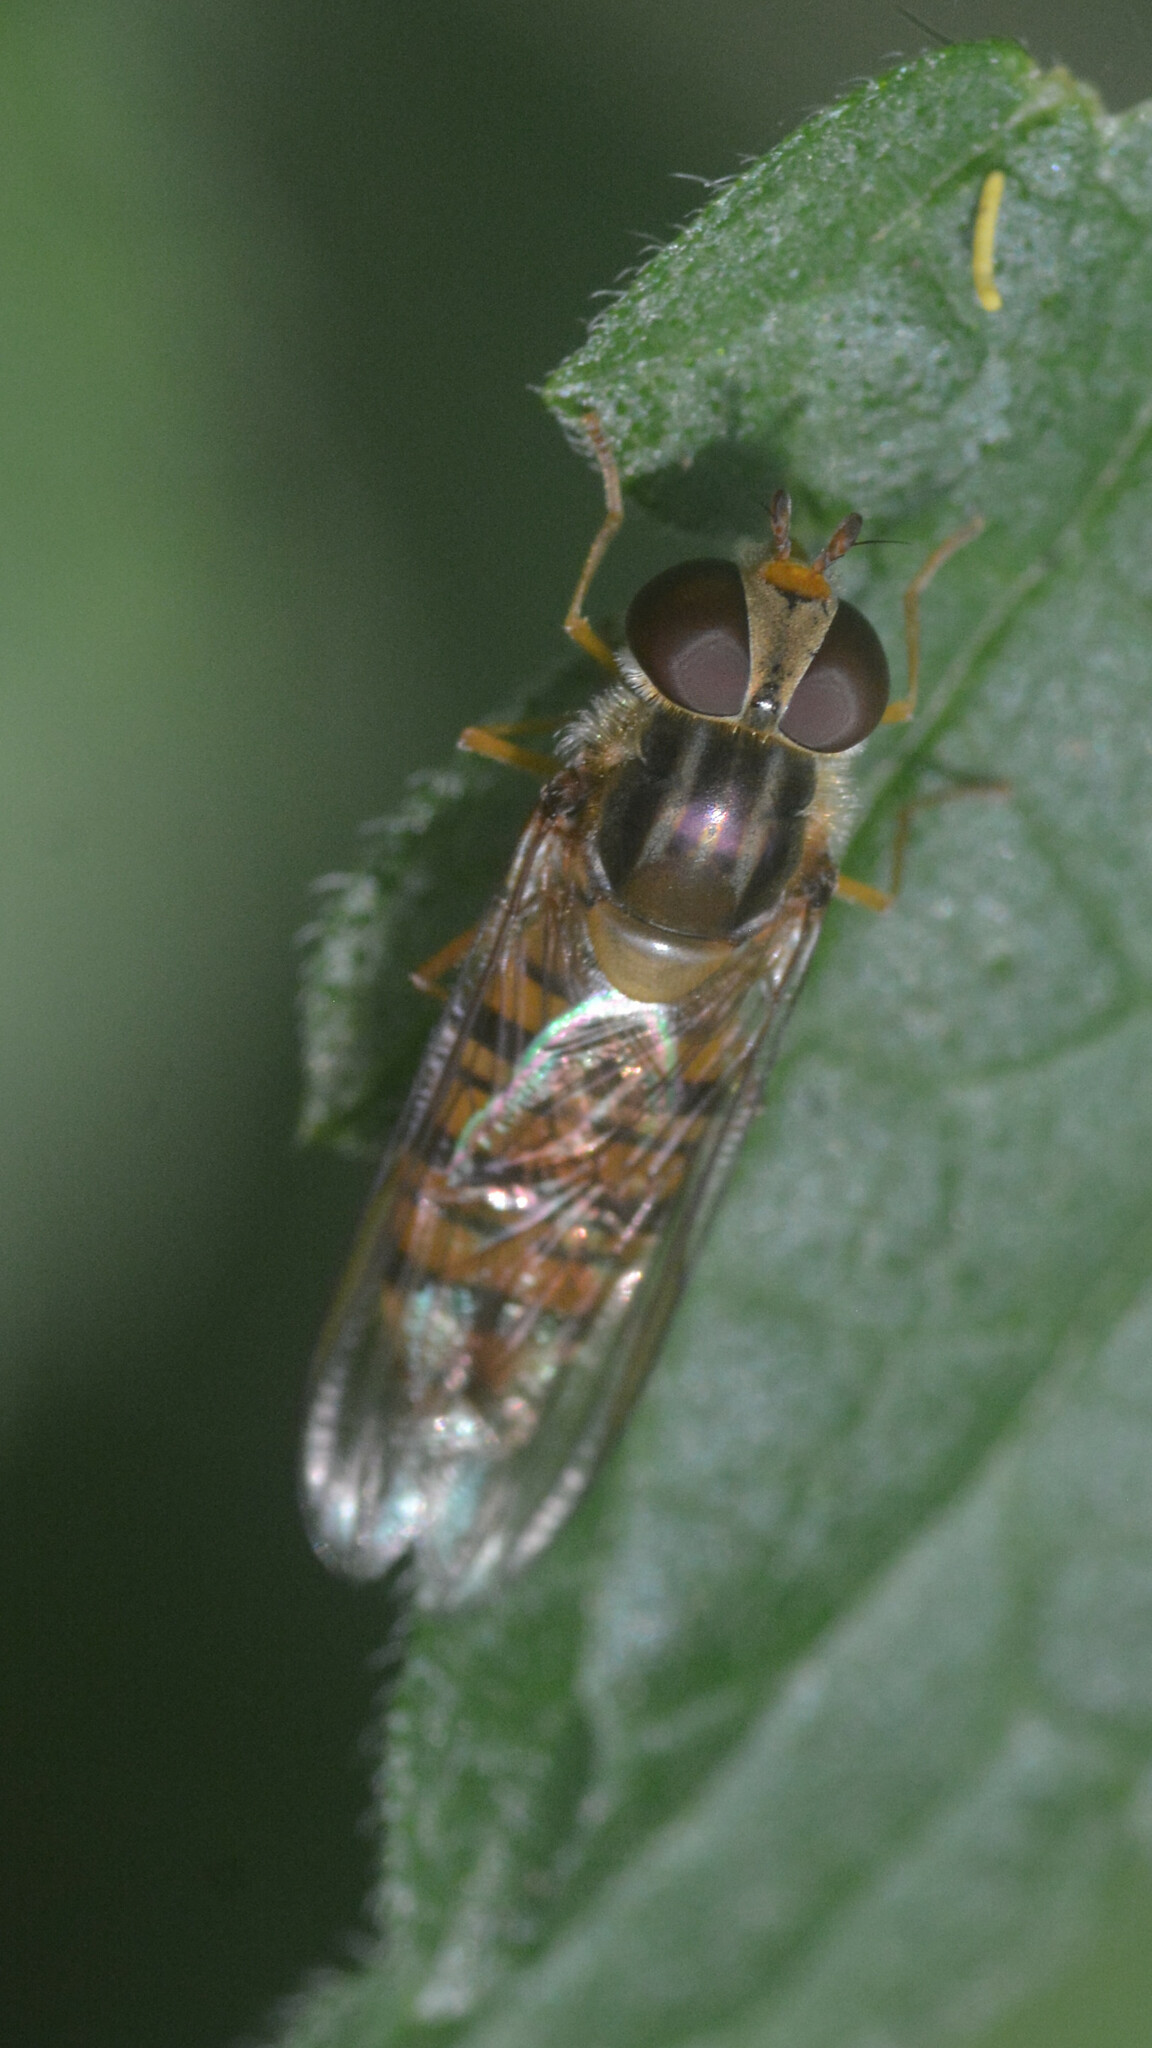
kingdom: Animalia
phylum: Arthropoda
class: Insecta
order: Diptera
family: Syrphidae
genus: Episyrphus
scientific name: Episyrphus balteatus
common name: Marmalade hoverfly
